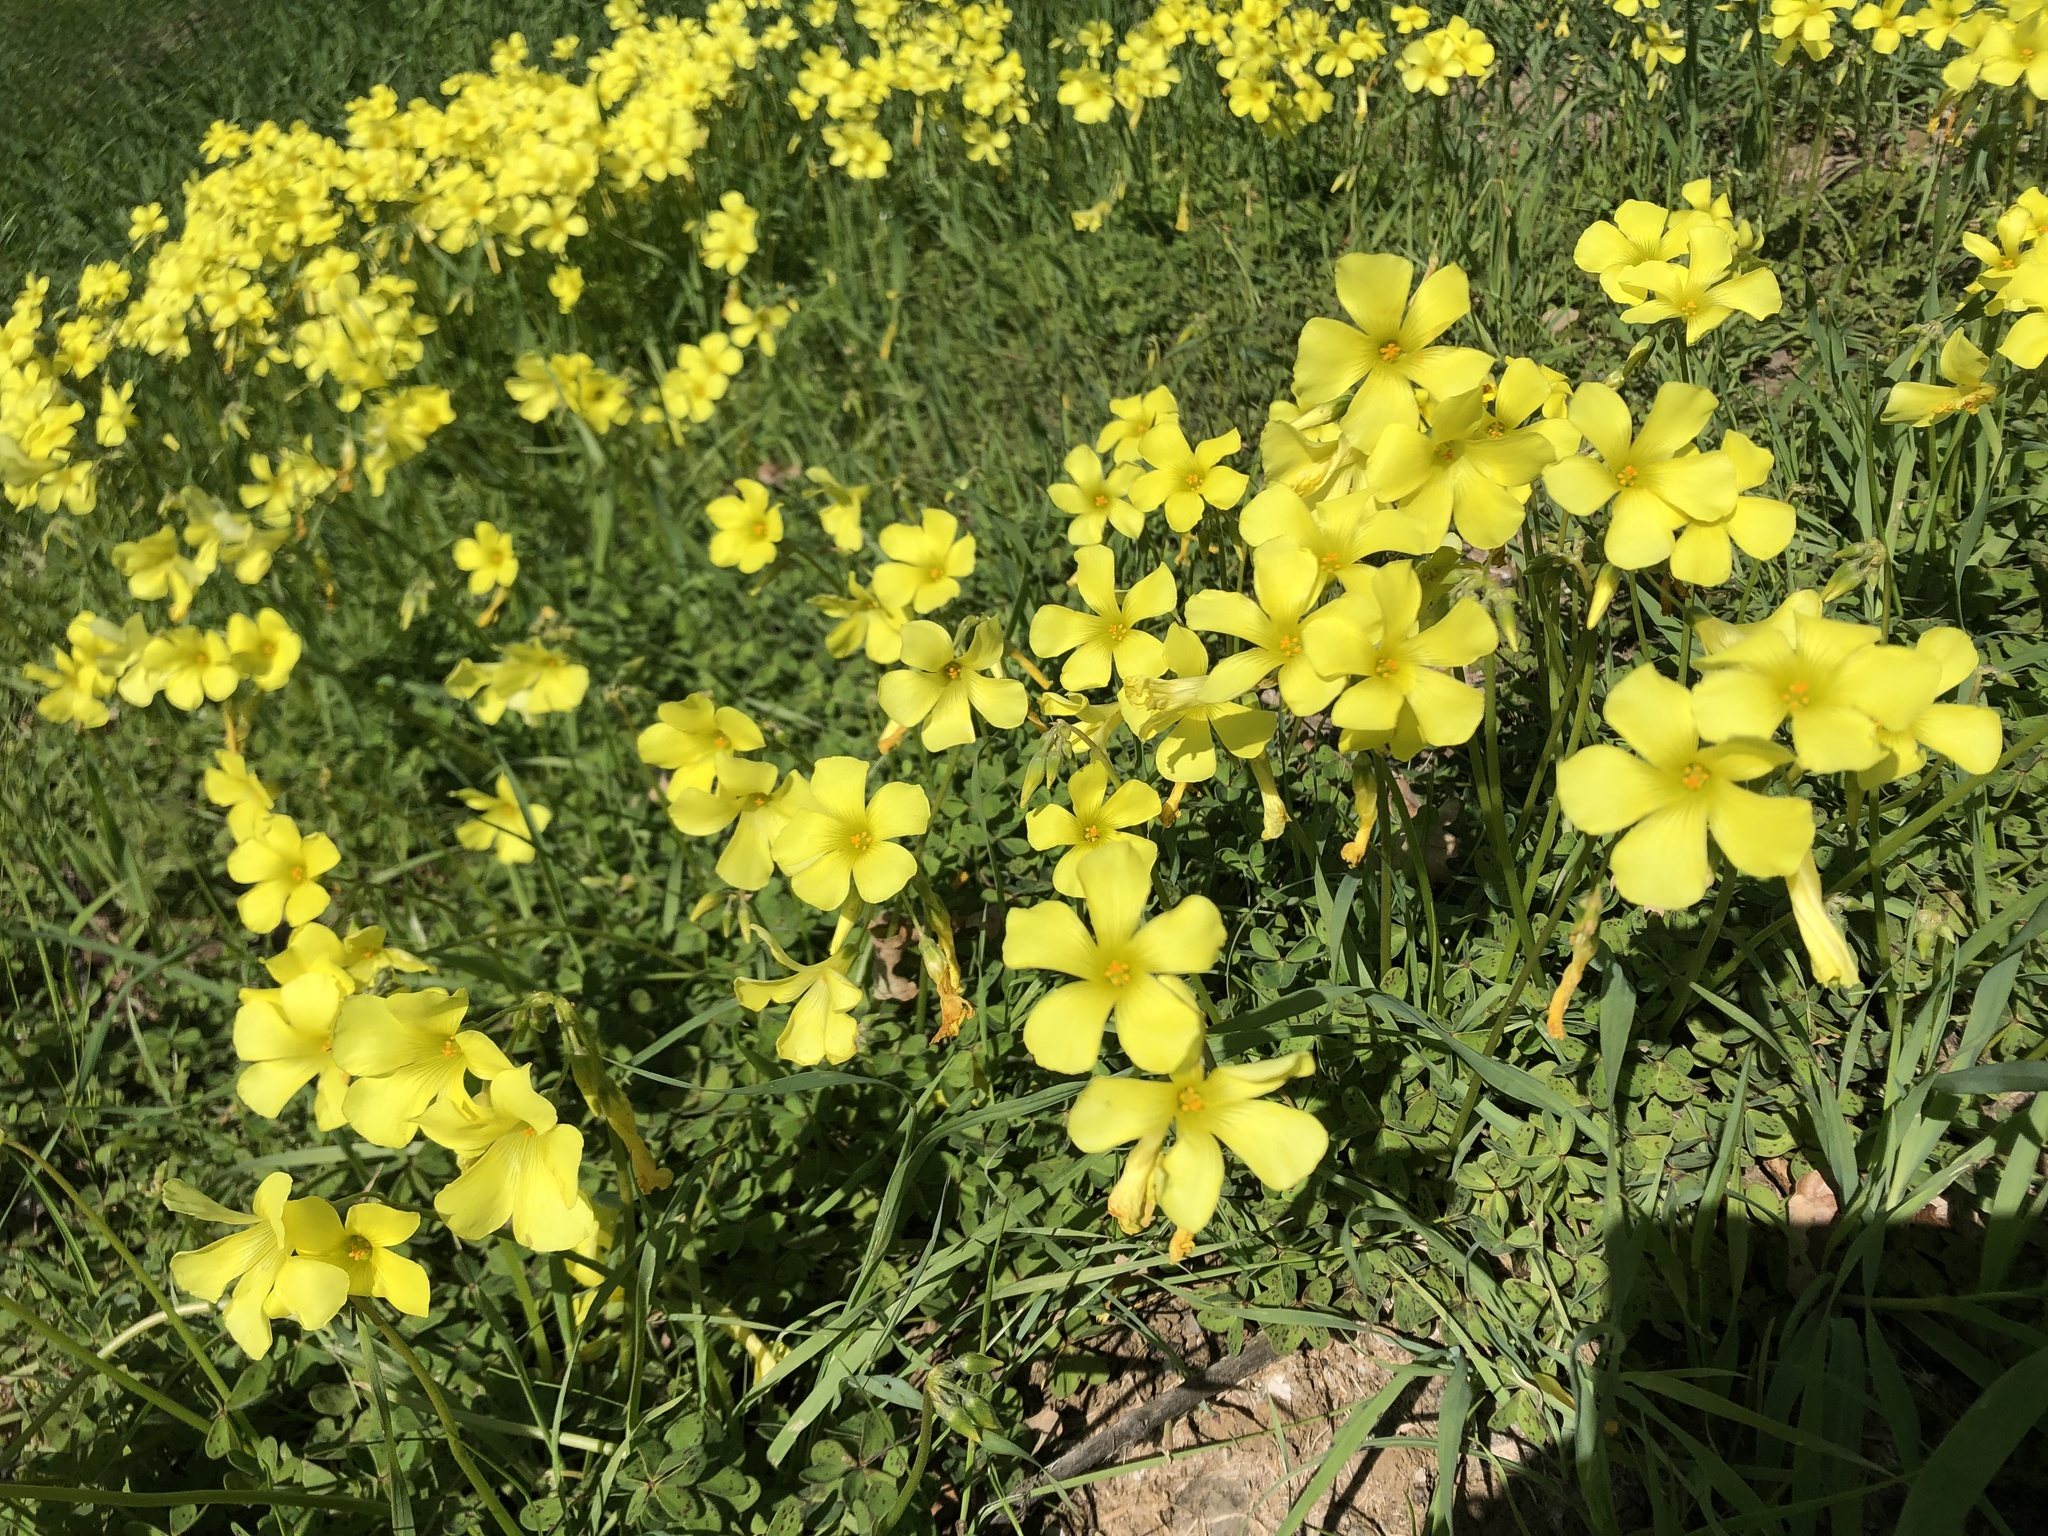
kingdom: Plantae
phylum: Tracheophyta
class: Magnoliopsida
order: Oxalidales
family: Oxalidaceae
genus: Oxalis
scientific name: Oxalis pes-caprae
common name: Bermuda-buttercup
